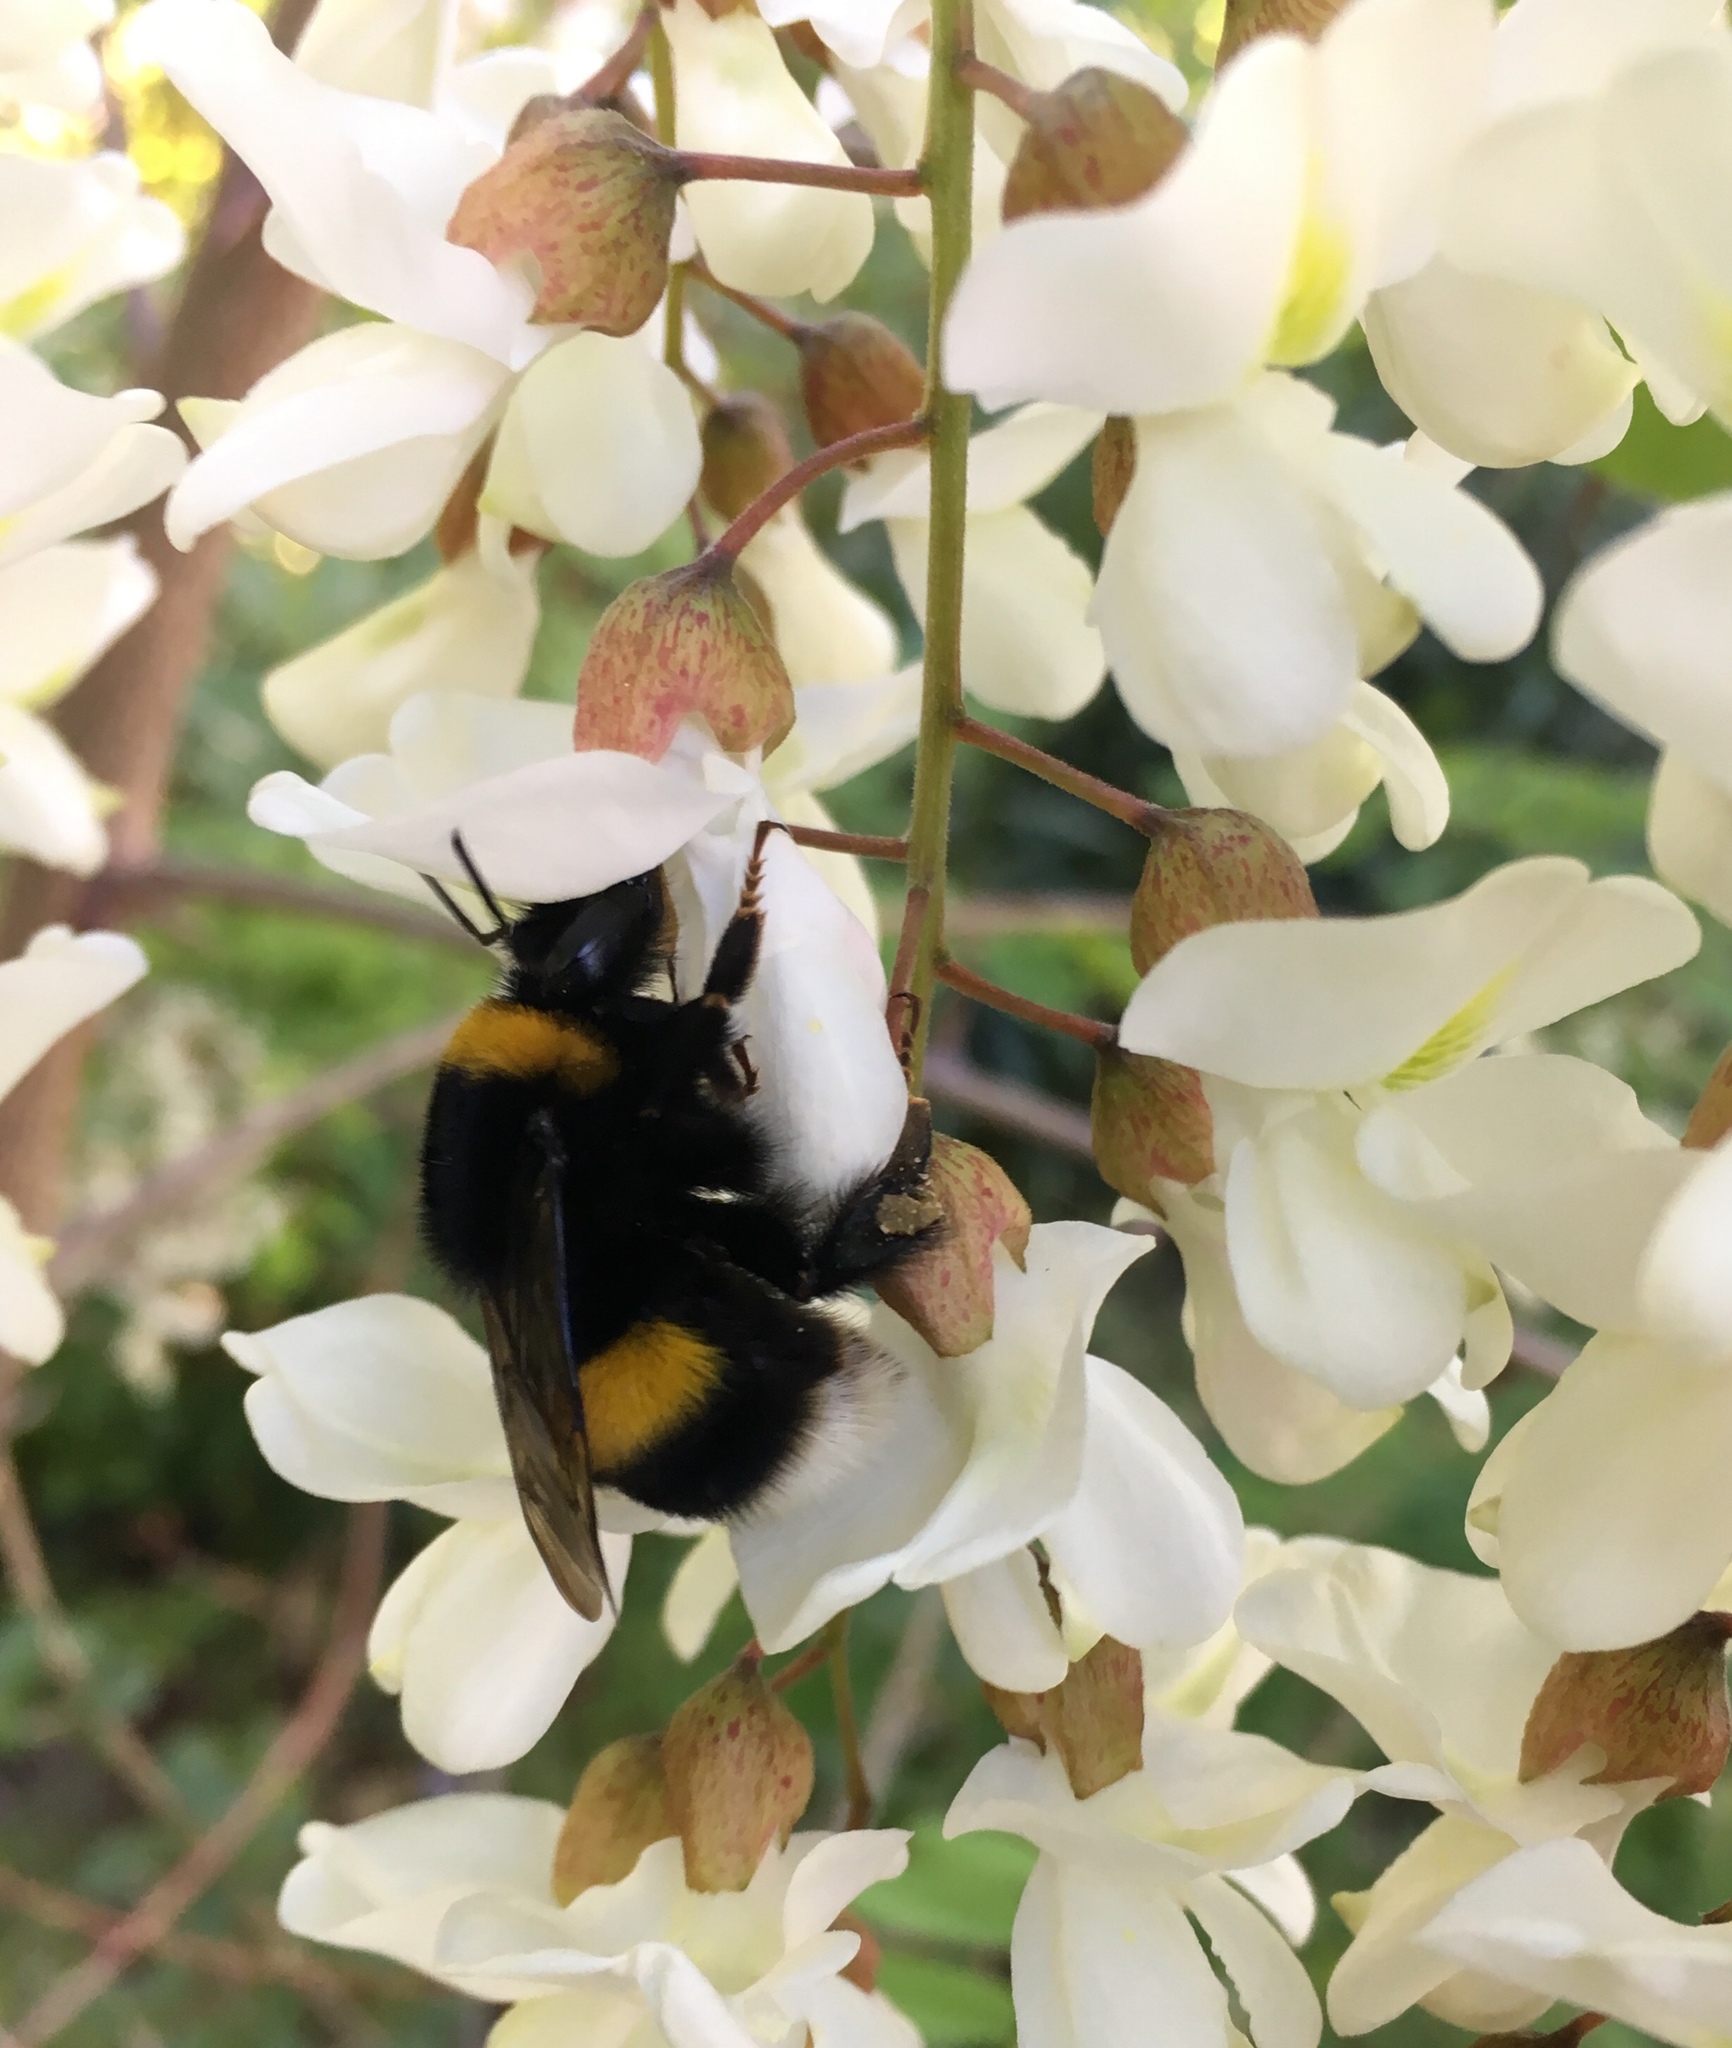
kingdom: Animalia
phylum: Arthropoda
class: Insecta
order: Hymenoptera
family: Apidae
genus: Bombus
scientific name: Bombus terrestris
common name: Buff-tailed bumblebee
